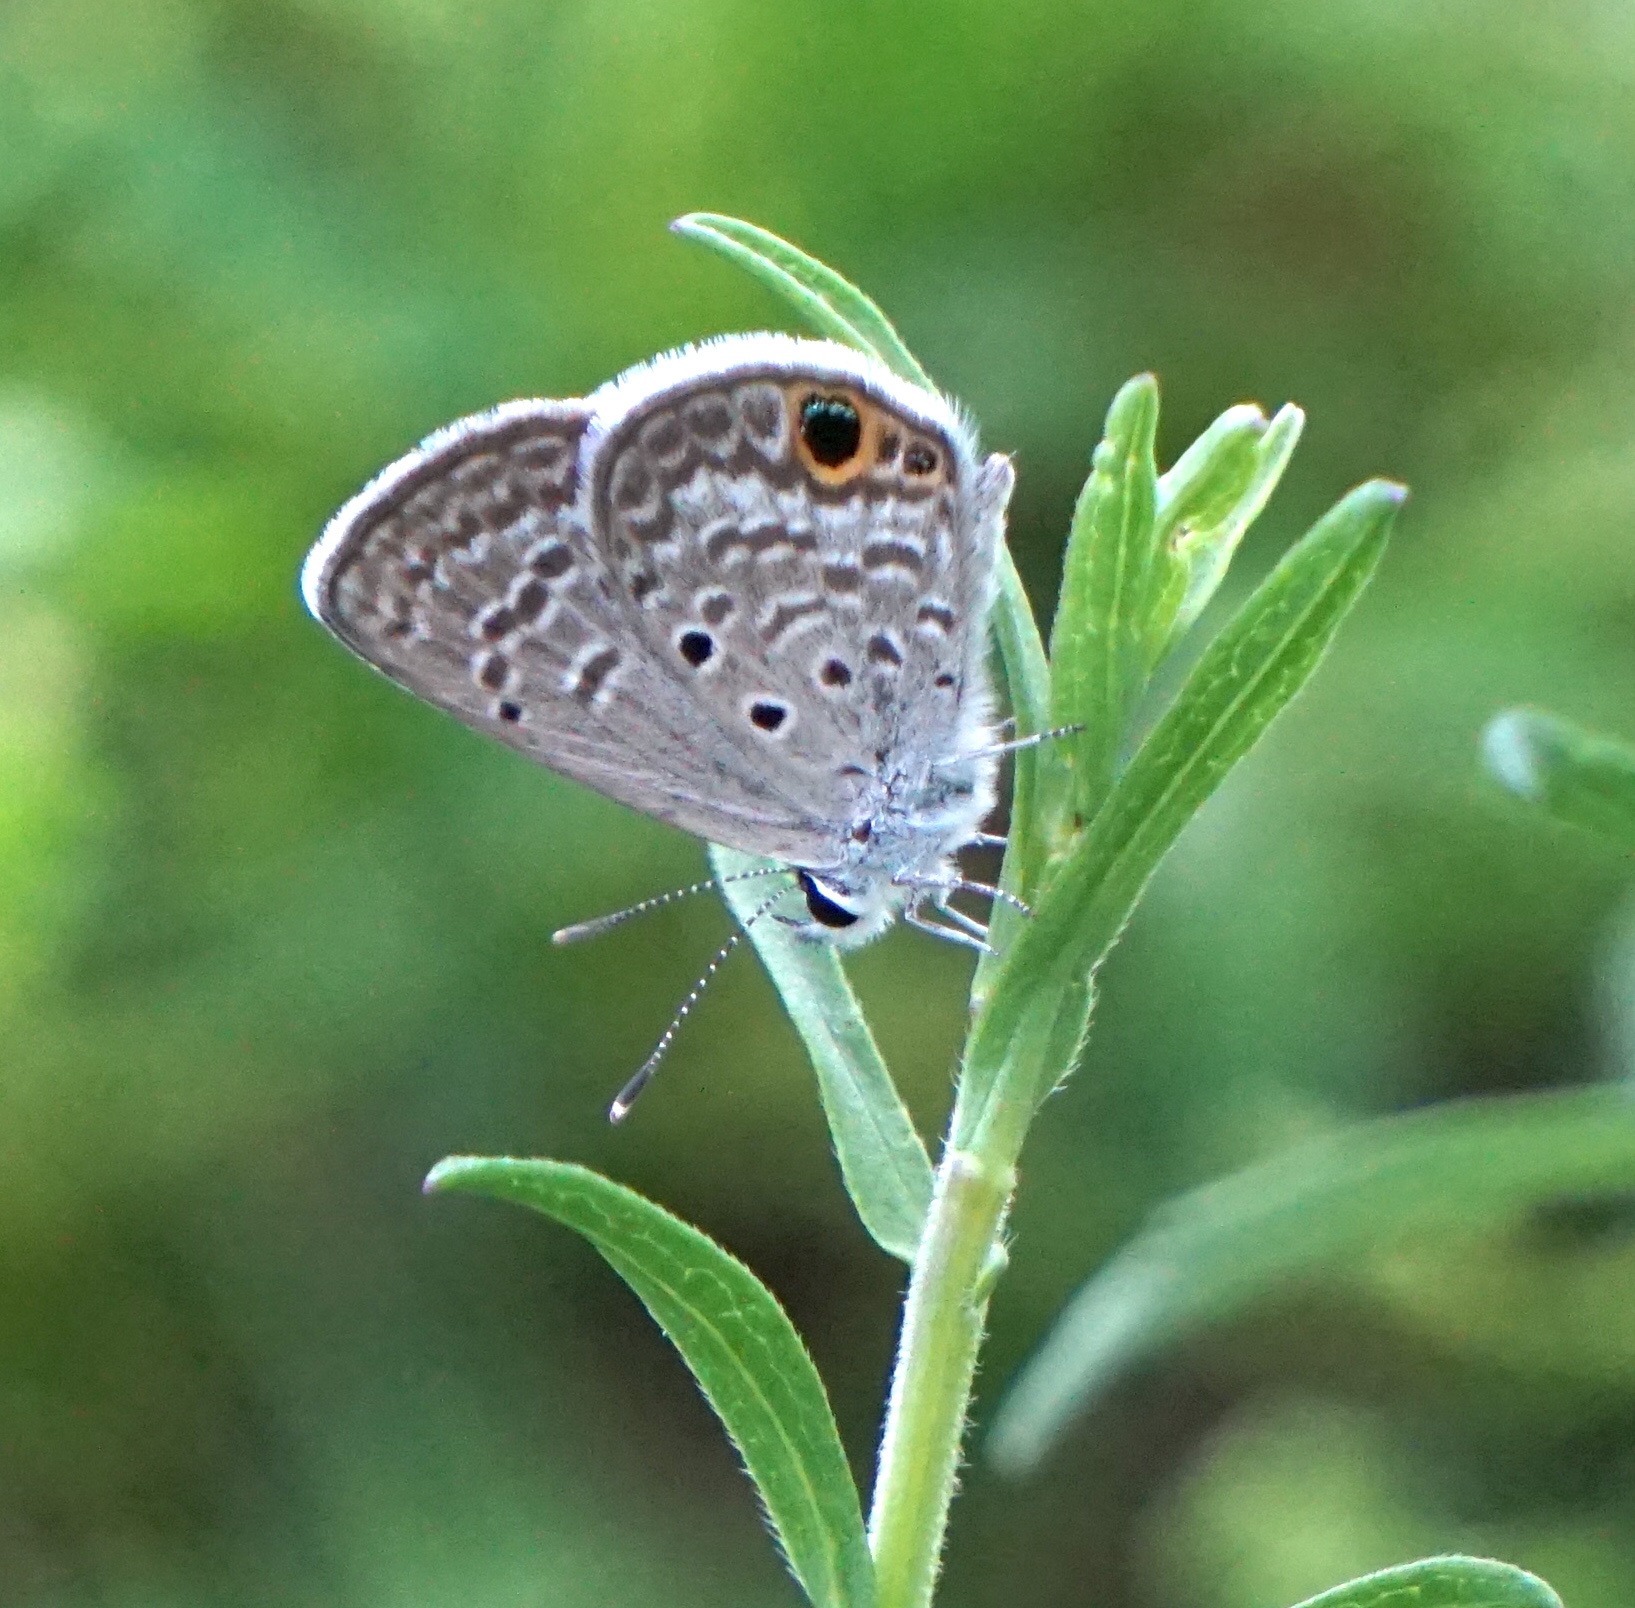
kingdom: Animalia
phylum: Arthropoda
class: Insecta
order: Lepidoptera
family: Lycaenidae
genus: Hemiargus
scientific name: Hemiargus ceraunus
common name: Ceraunus blue
